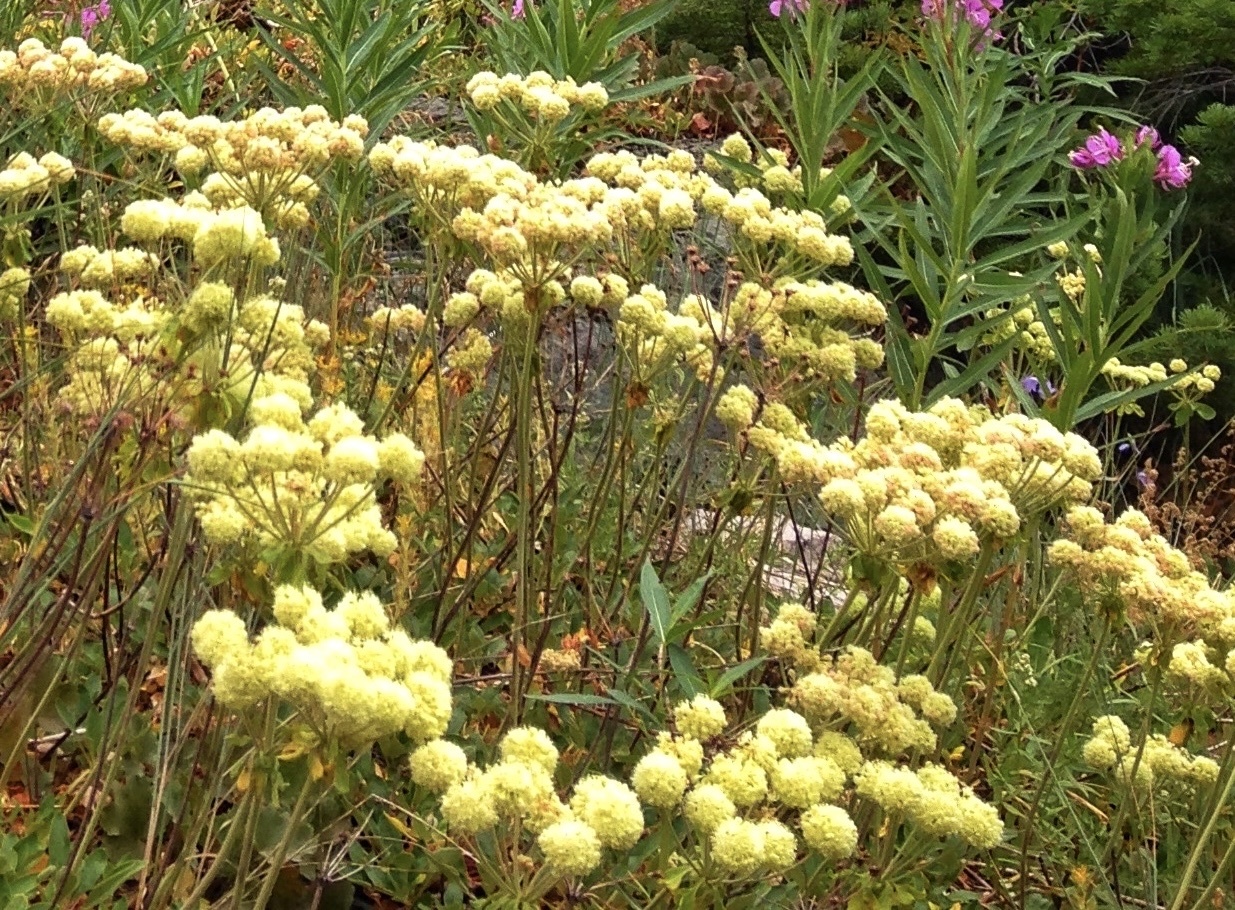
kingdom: Plantae
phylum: Tracheophyta
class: Magnoliopsida
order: Caryophyllales
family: Polygonaceae
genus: Eriogonum
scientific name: Eriogonum umbellatum
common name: Sulfur-buckwheat
